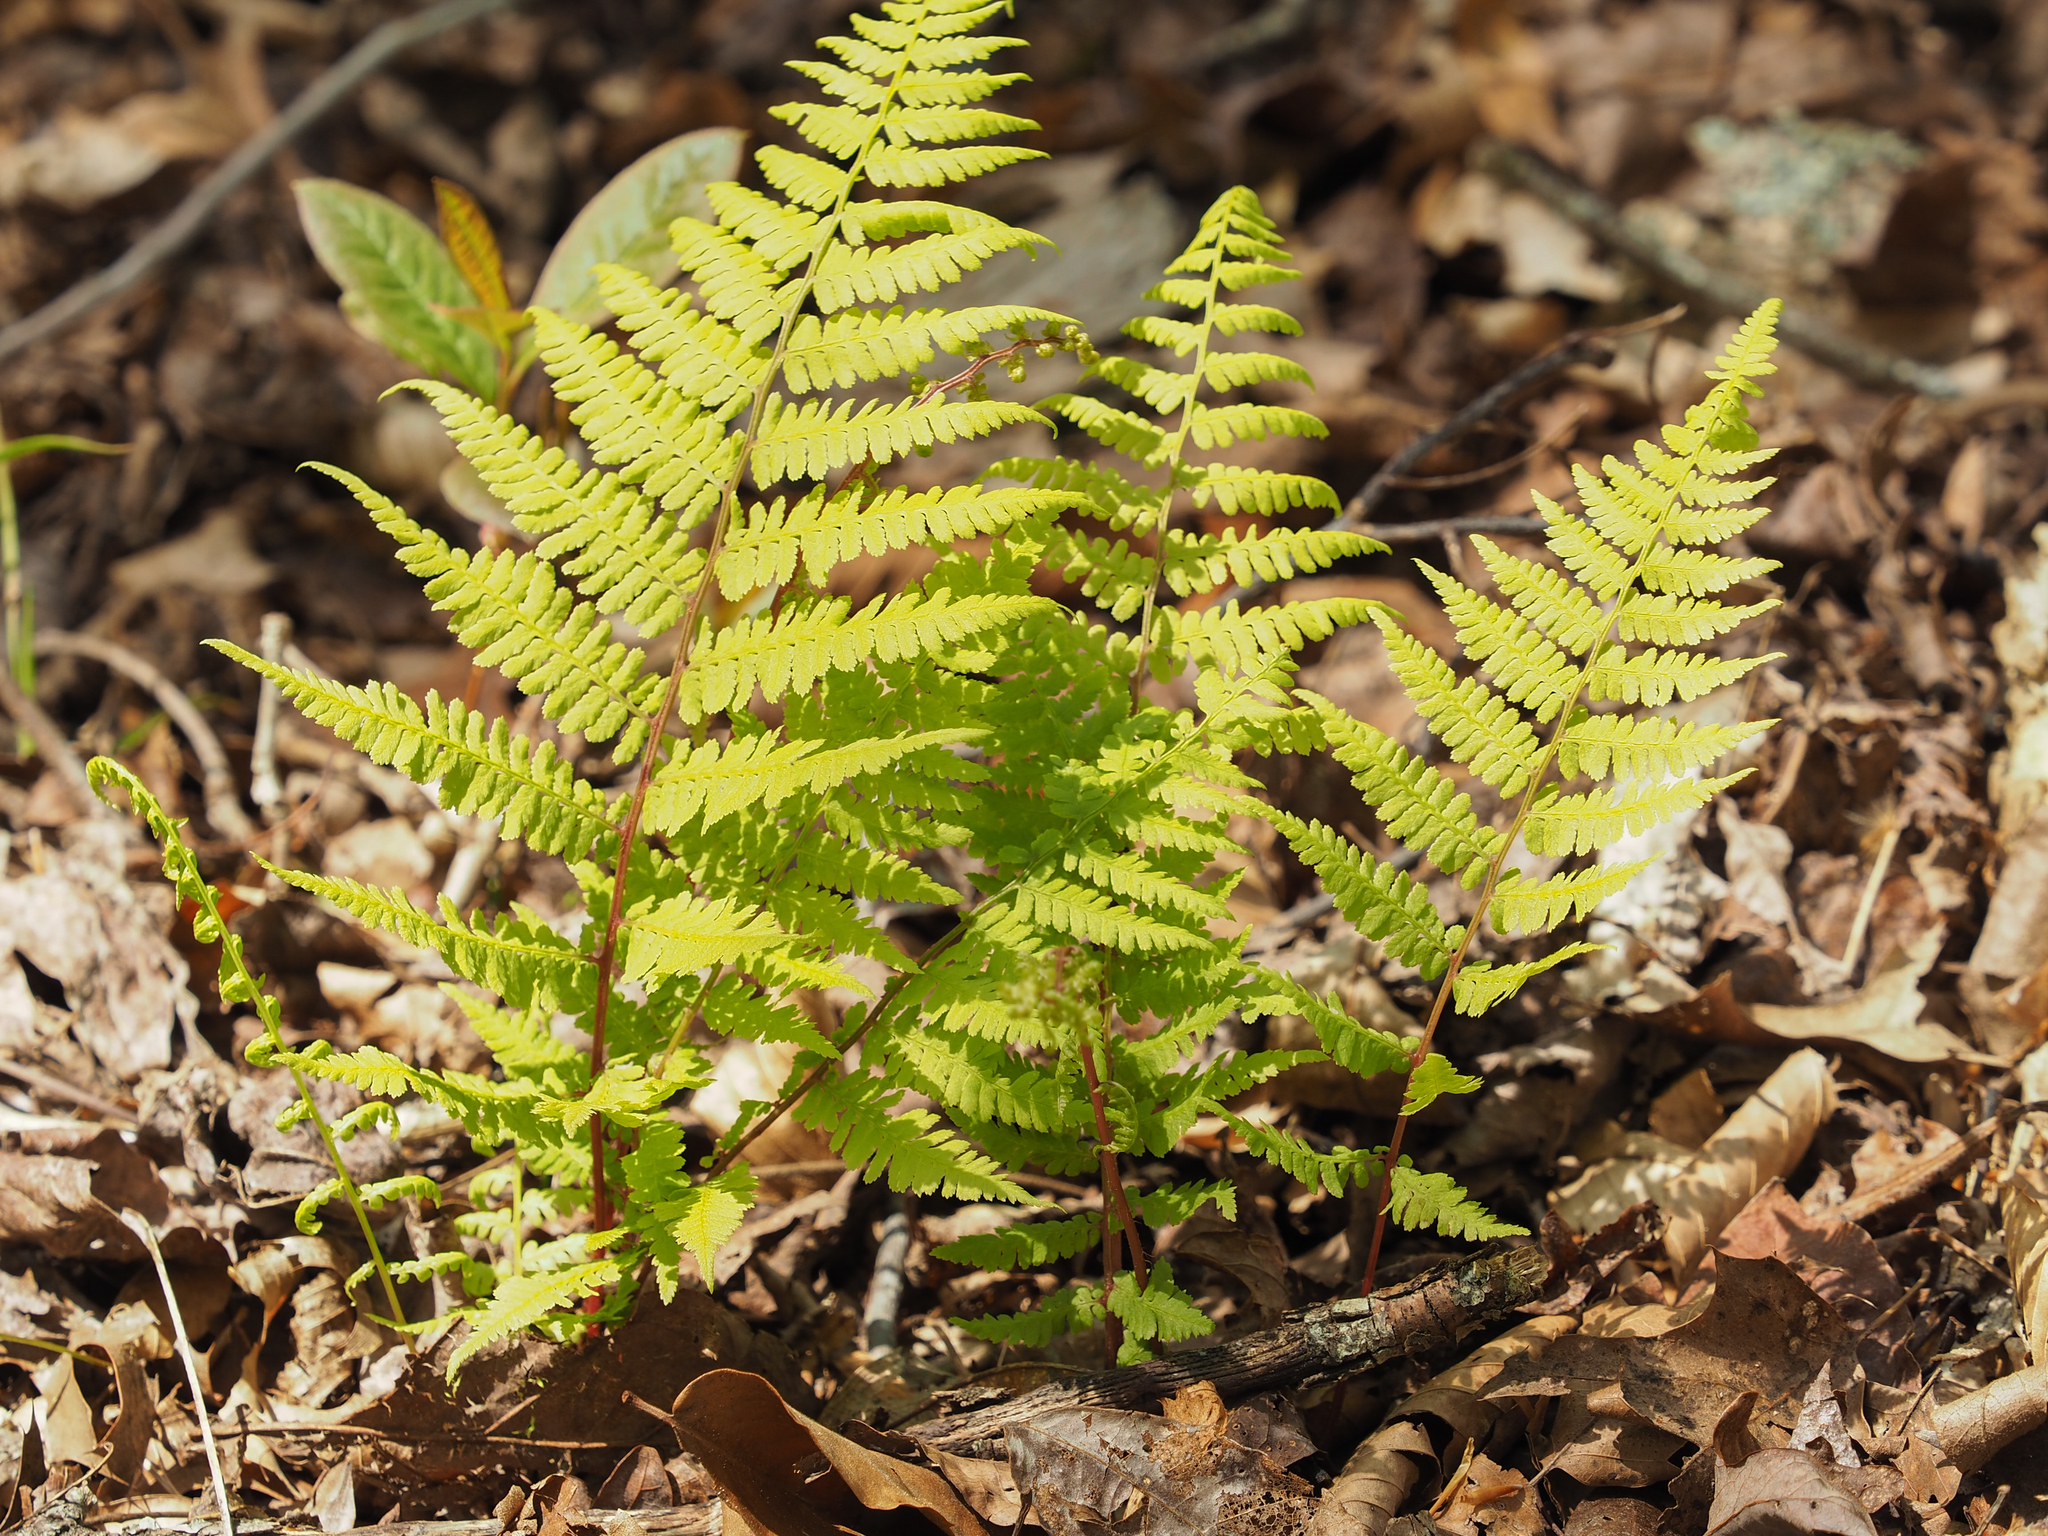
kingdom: Plantae
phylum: Tracheophyta
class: Polypodiopsida
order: Polypodiales
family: Athyriaceae
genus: Athyrium
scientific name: Athyrium asplenioides
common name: Southern lady fern
